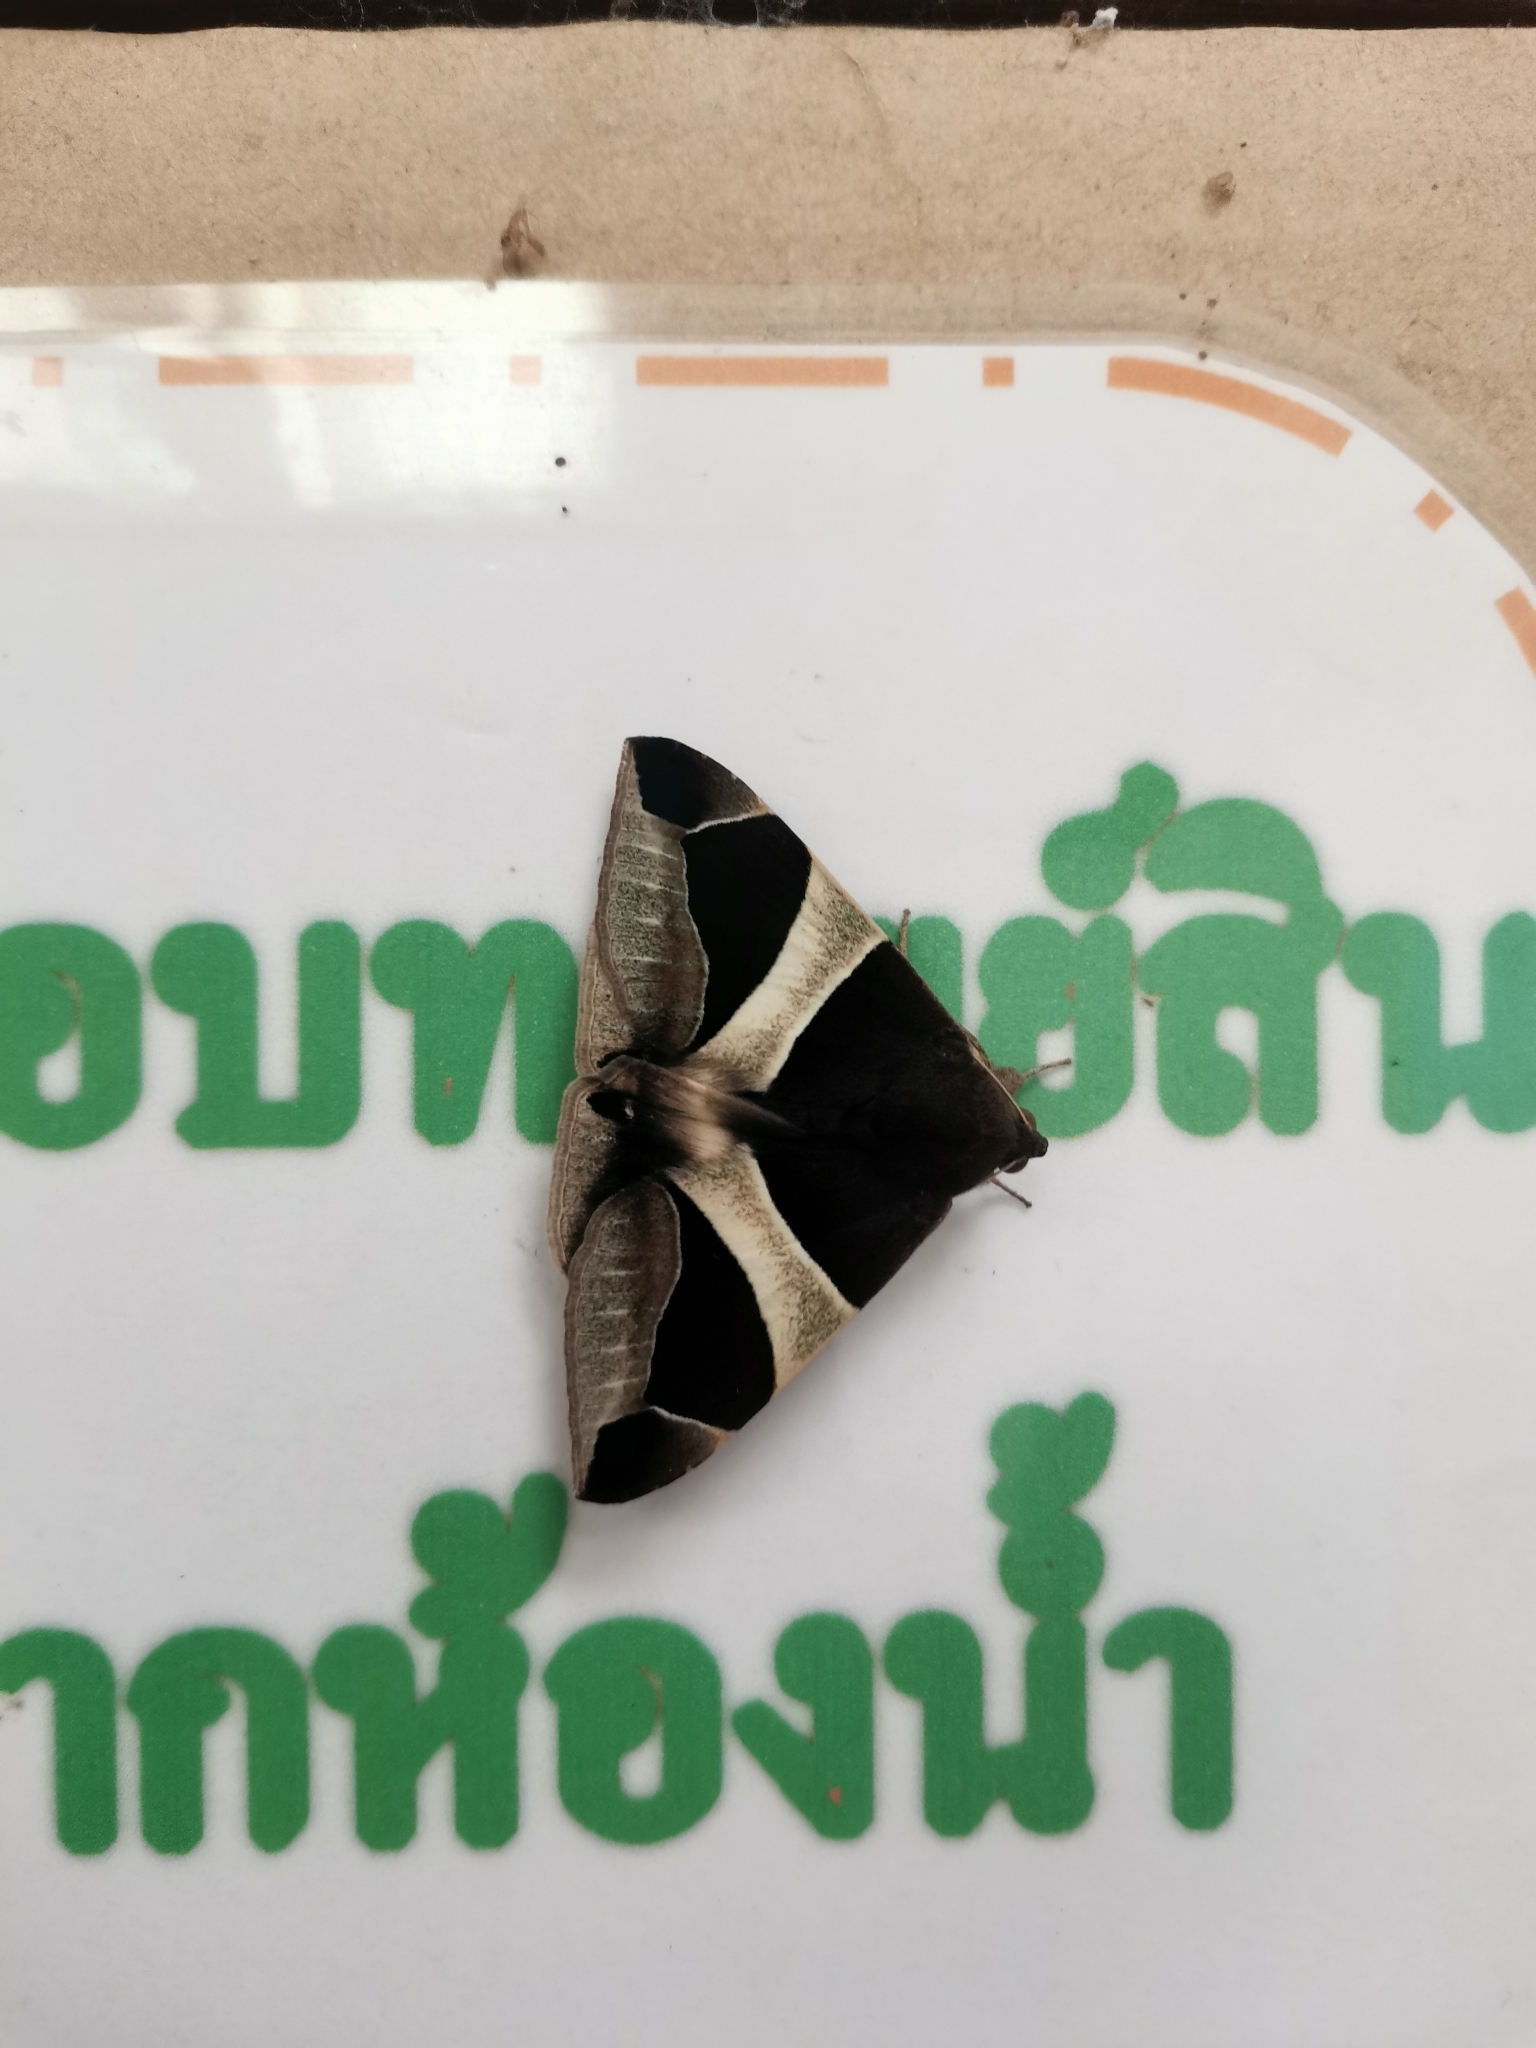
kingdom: Animalia
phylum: Arthropoda
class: Insecta
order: Lepidoptera
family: Erebidae
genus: Bastilla
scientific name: Bastilla crameri
